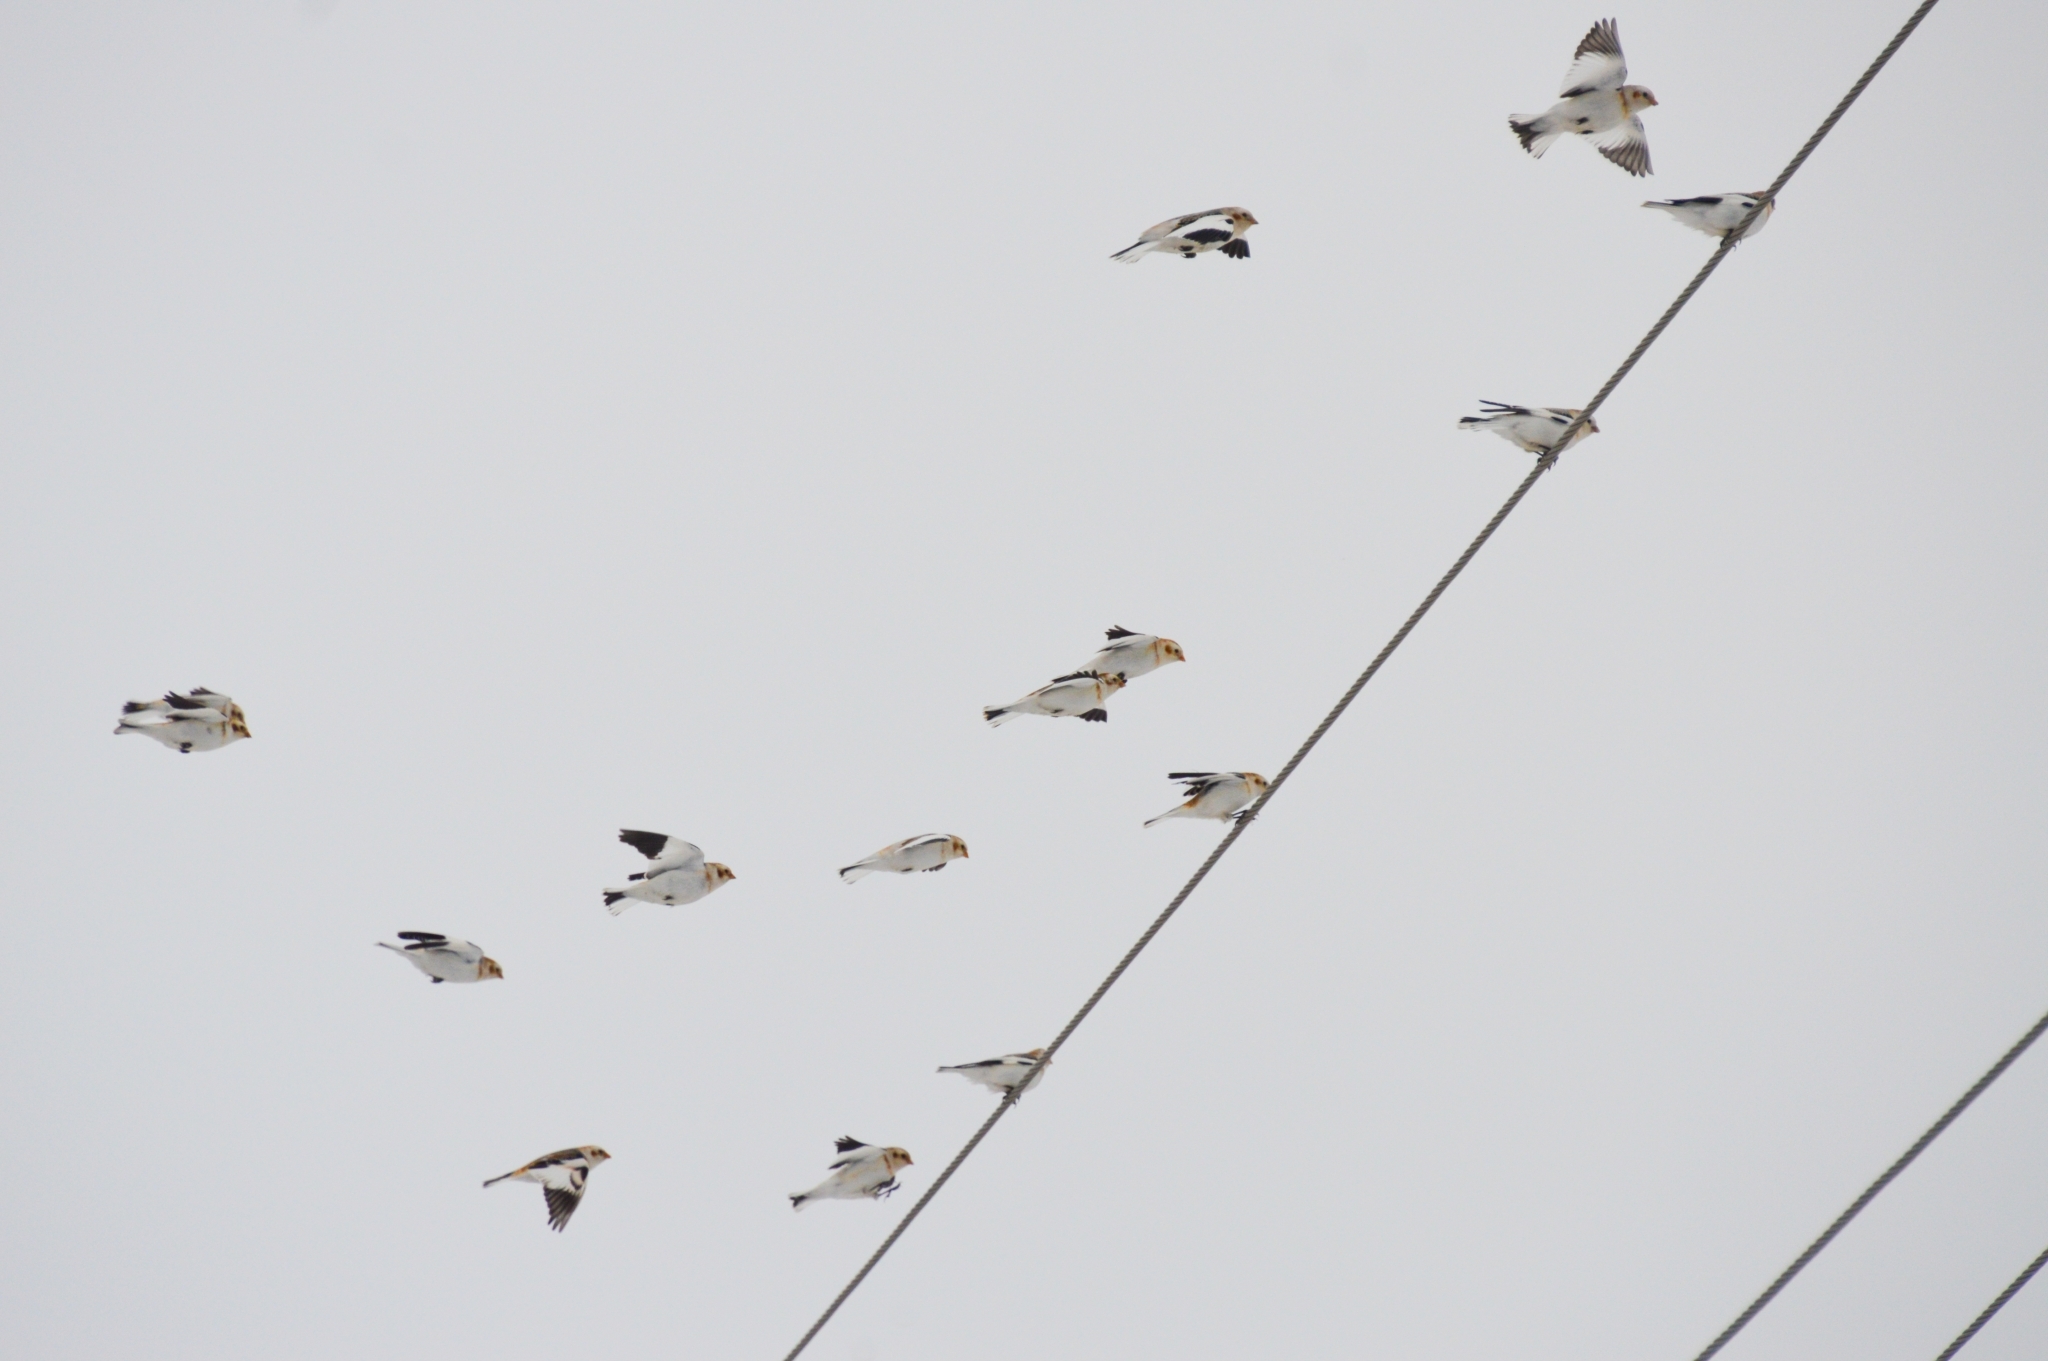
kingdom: Animalia
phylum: Chordata
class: Aves
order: Passeriformes
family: Calcariidae
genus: Plectrophenax
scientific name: Plectrophenax nivalis
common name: Snow bunting
